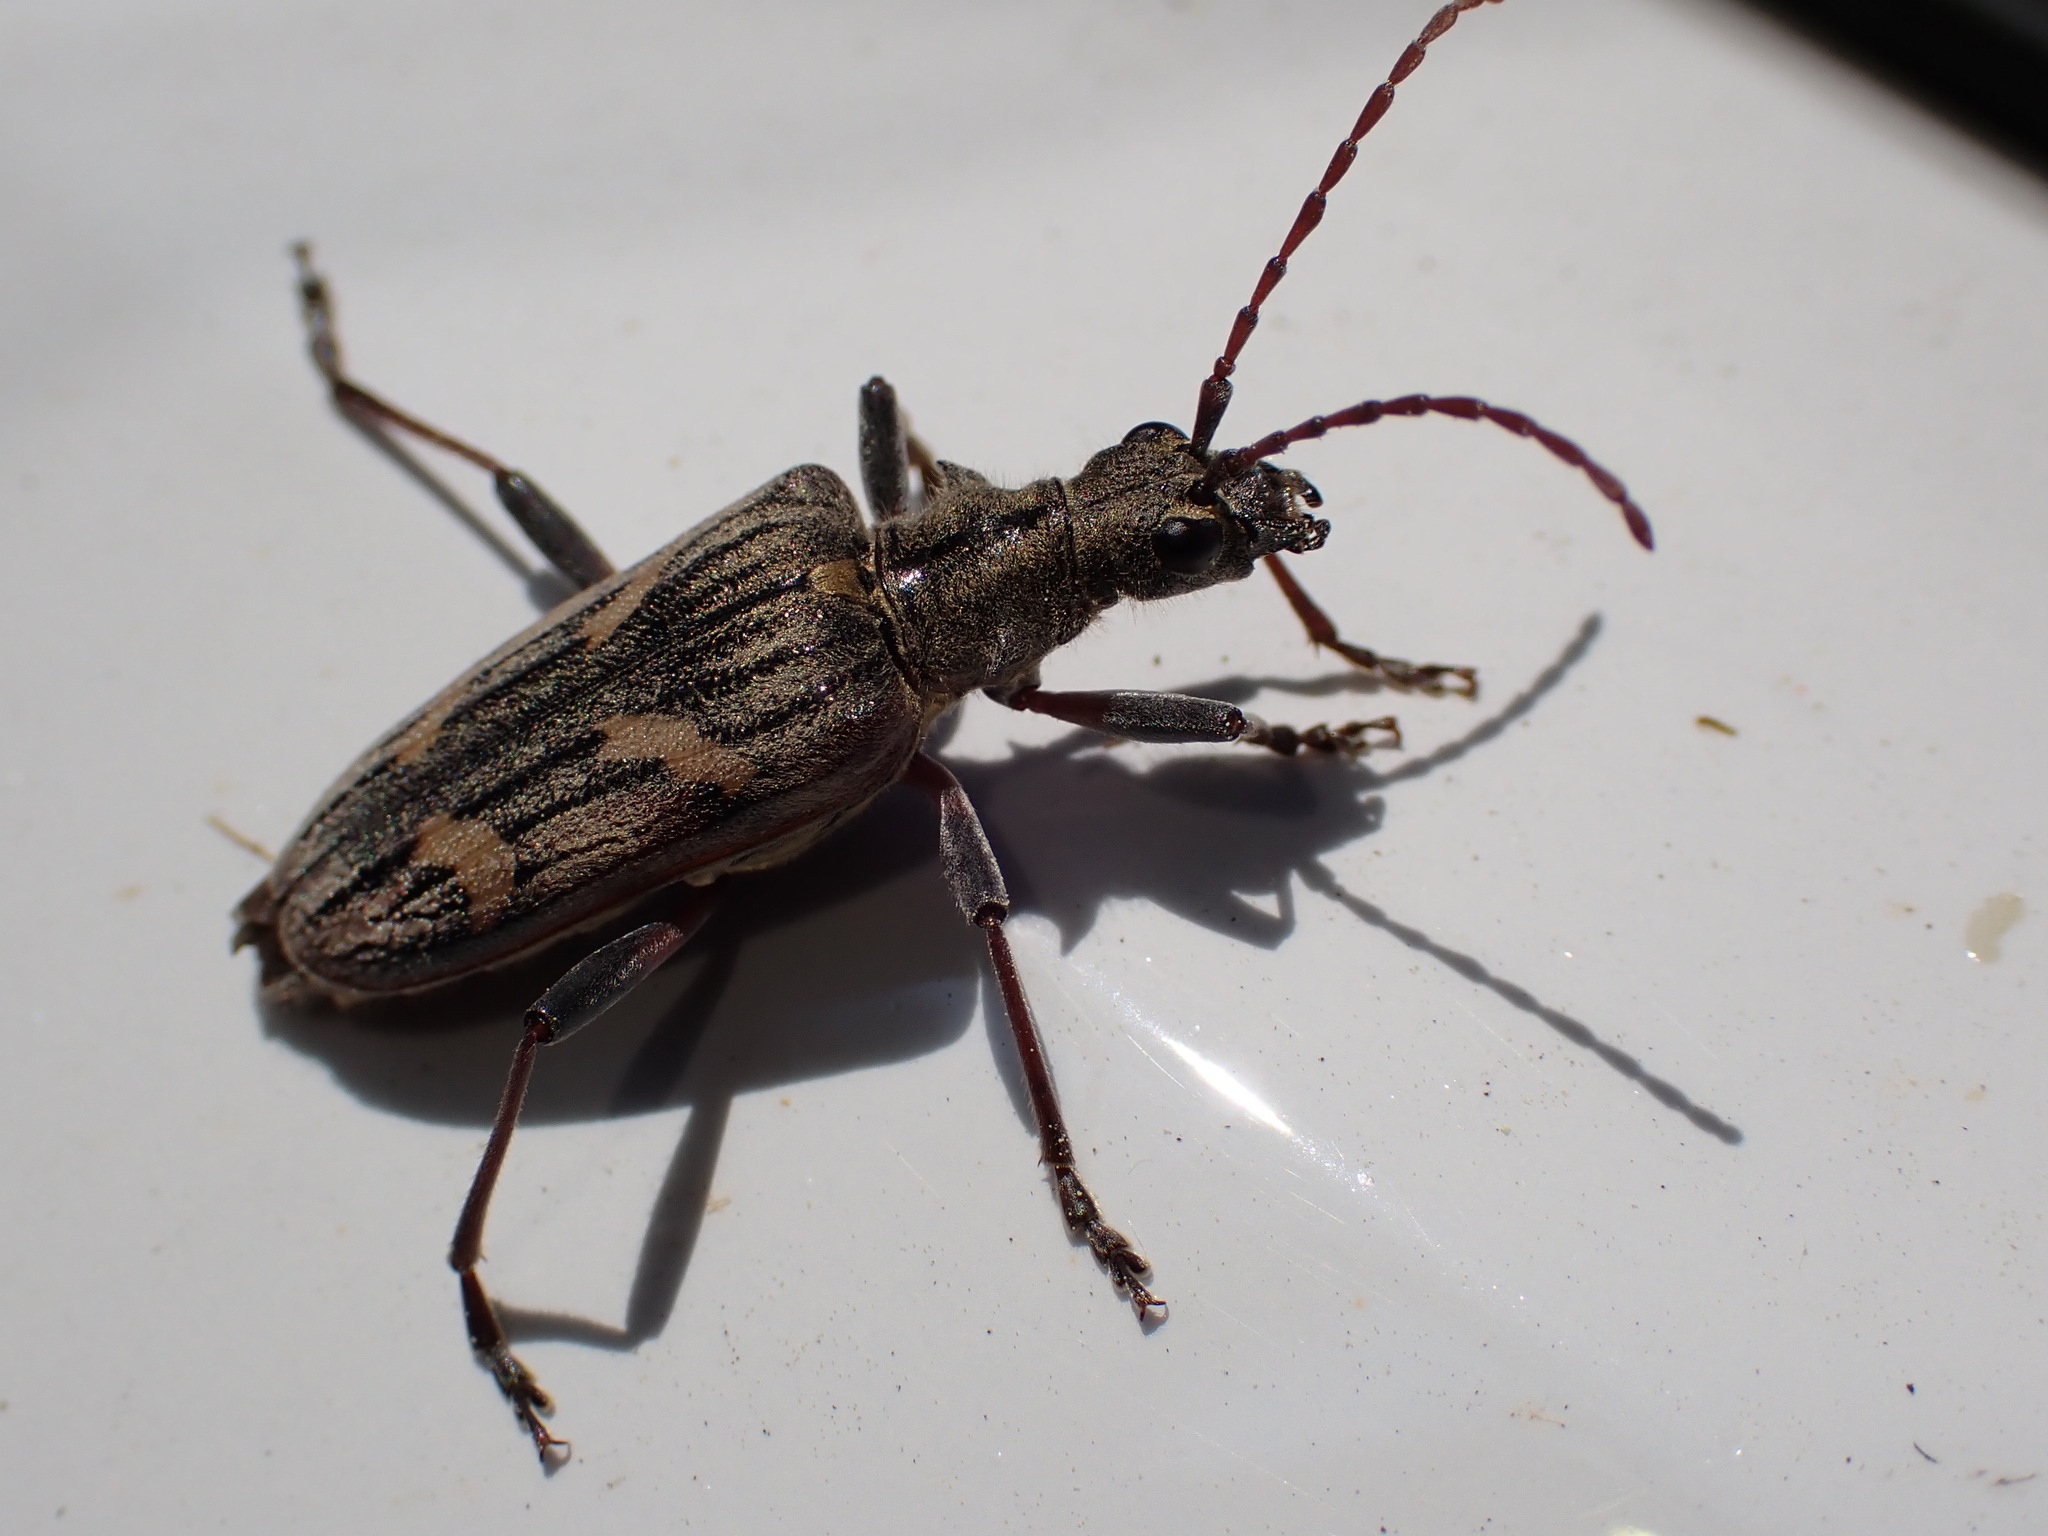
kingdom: Animalia
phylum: Arthropoda
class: Insecta
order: Coleoptera
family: Cerambycidae
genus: Rhagium
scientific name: Rhagium bifasciatum
